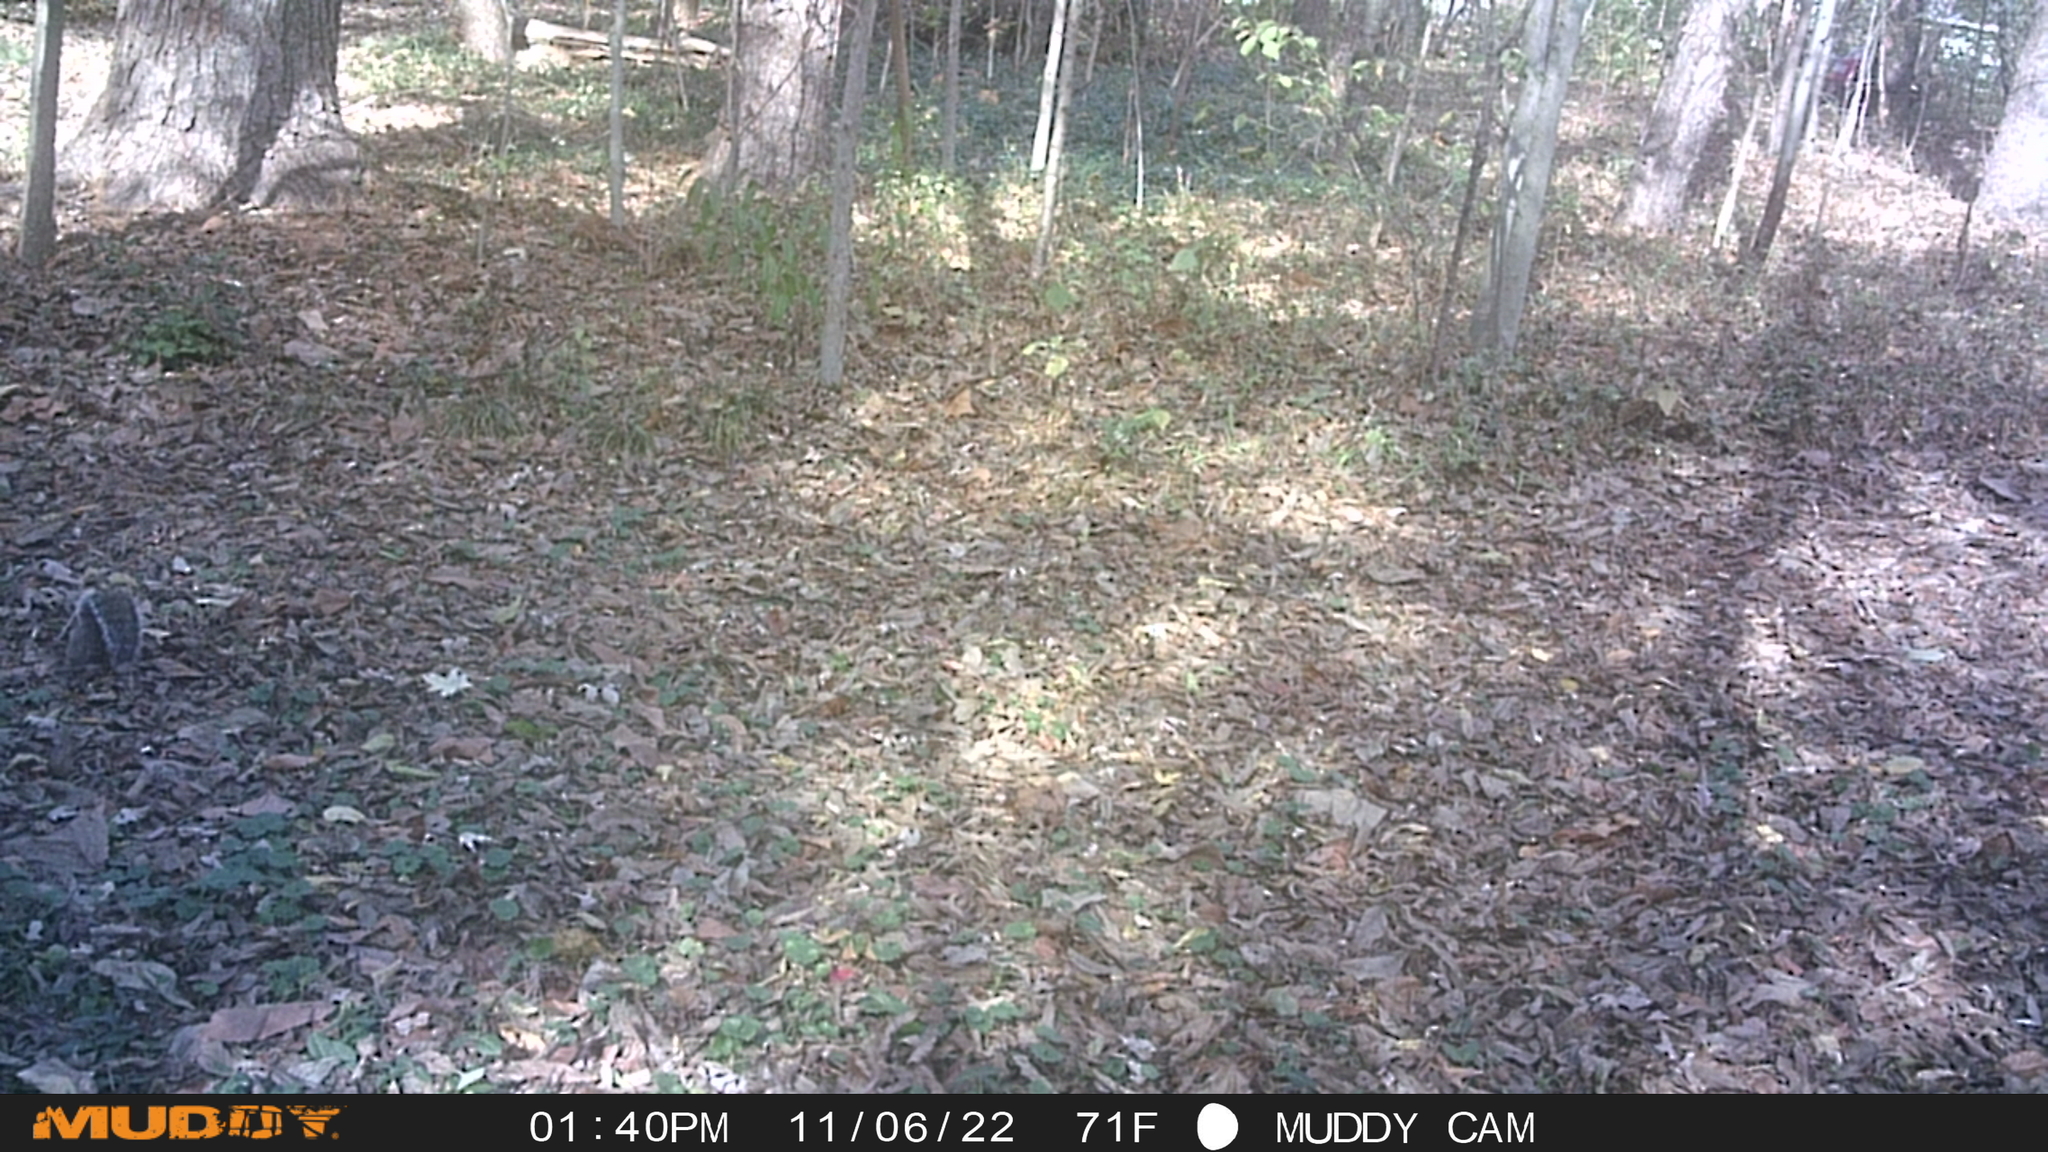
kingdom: Animalia
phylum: Chordata
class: Mammalia
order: Rodentia
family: Sciuridae
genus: Sciurus
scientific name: Sciurus carolinensis
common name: Eastern gray squirrel
